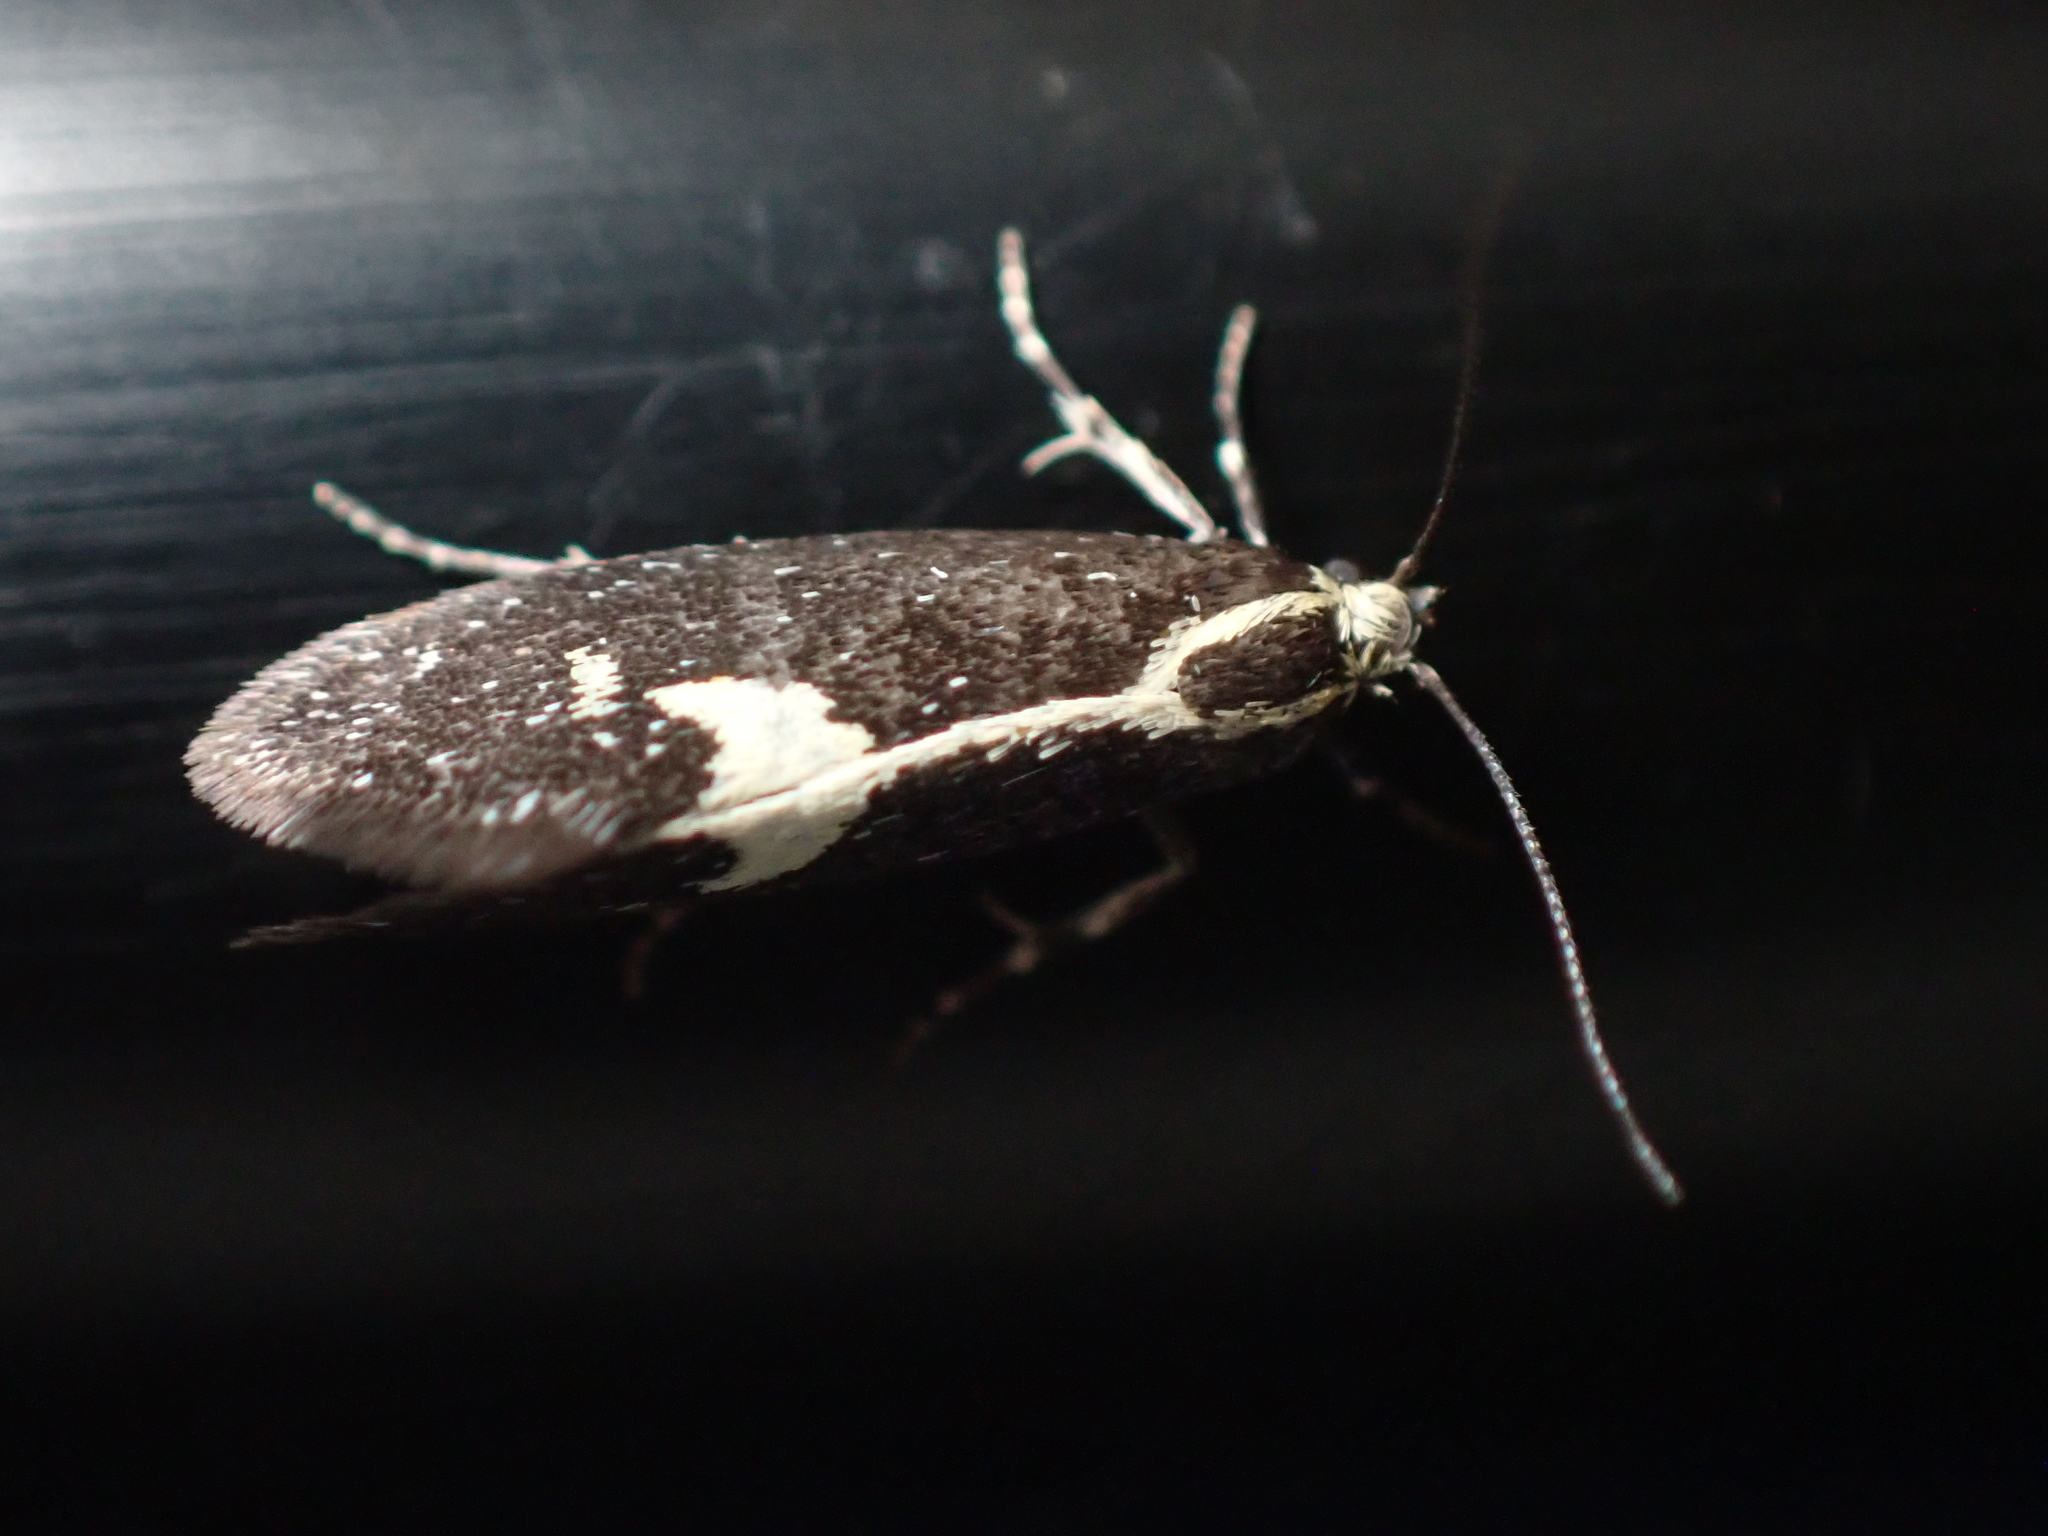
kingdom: Animalia
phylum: Arthropoda
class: Insecta
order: Lepidoptera
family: Oecophoridae
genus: Polix
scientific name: Polix coloradella
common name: Skunk moth
